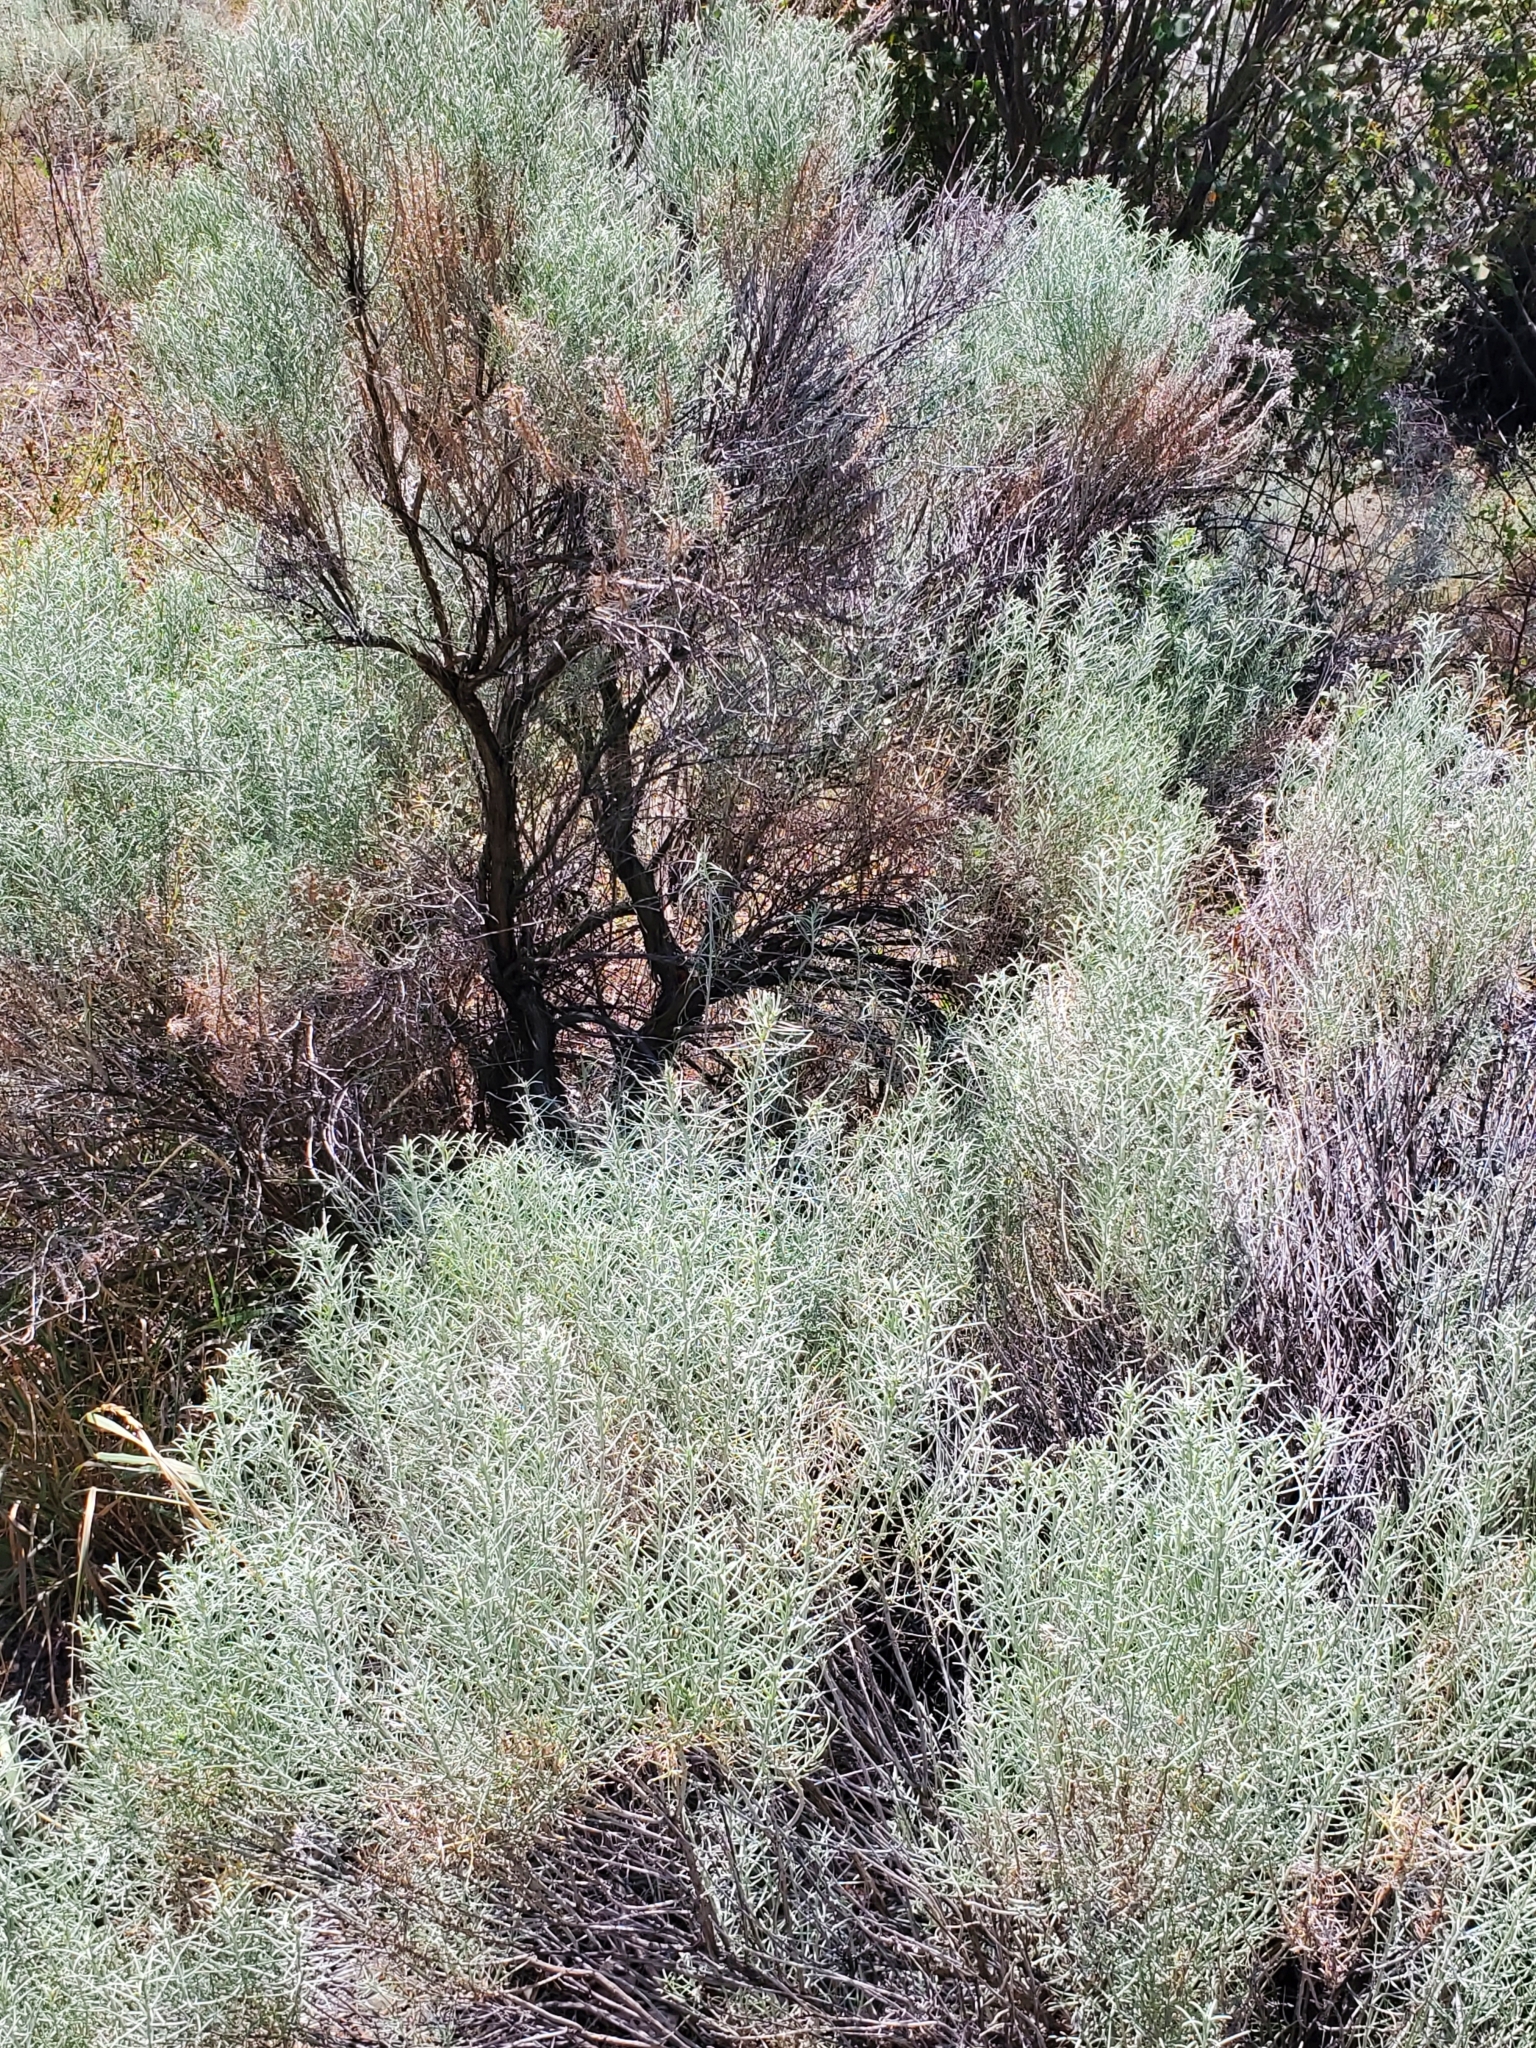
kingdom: Plantae
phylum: Tracheophyta
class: Magnoliopsida
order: Asterales
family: Asteraceae
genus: Ericameria
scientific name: Ericameria nauseosa
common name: Rubber rabbitbrush
